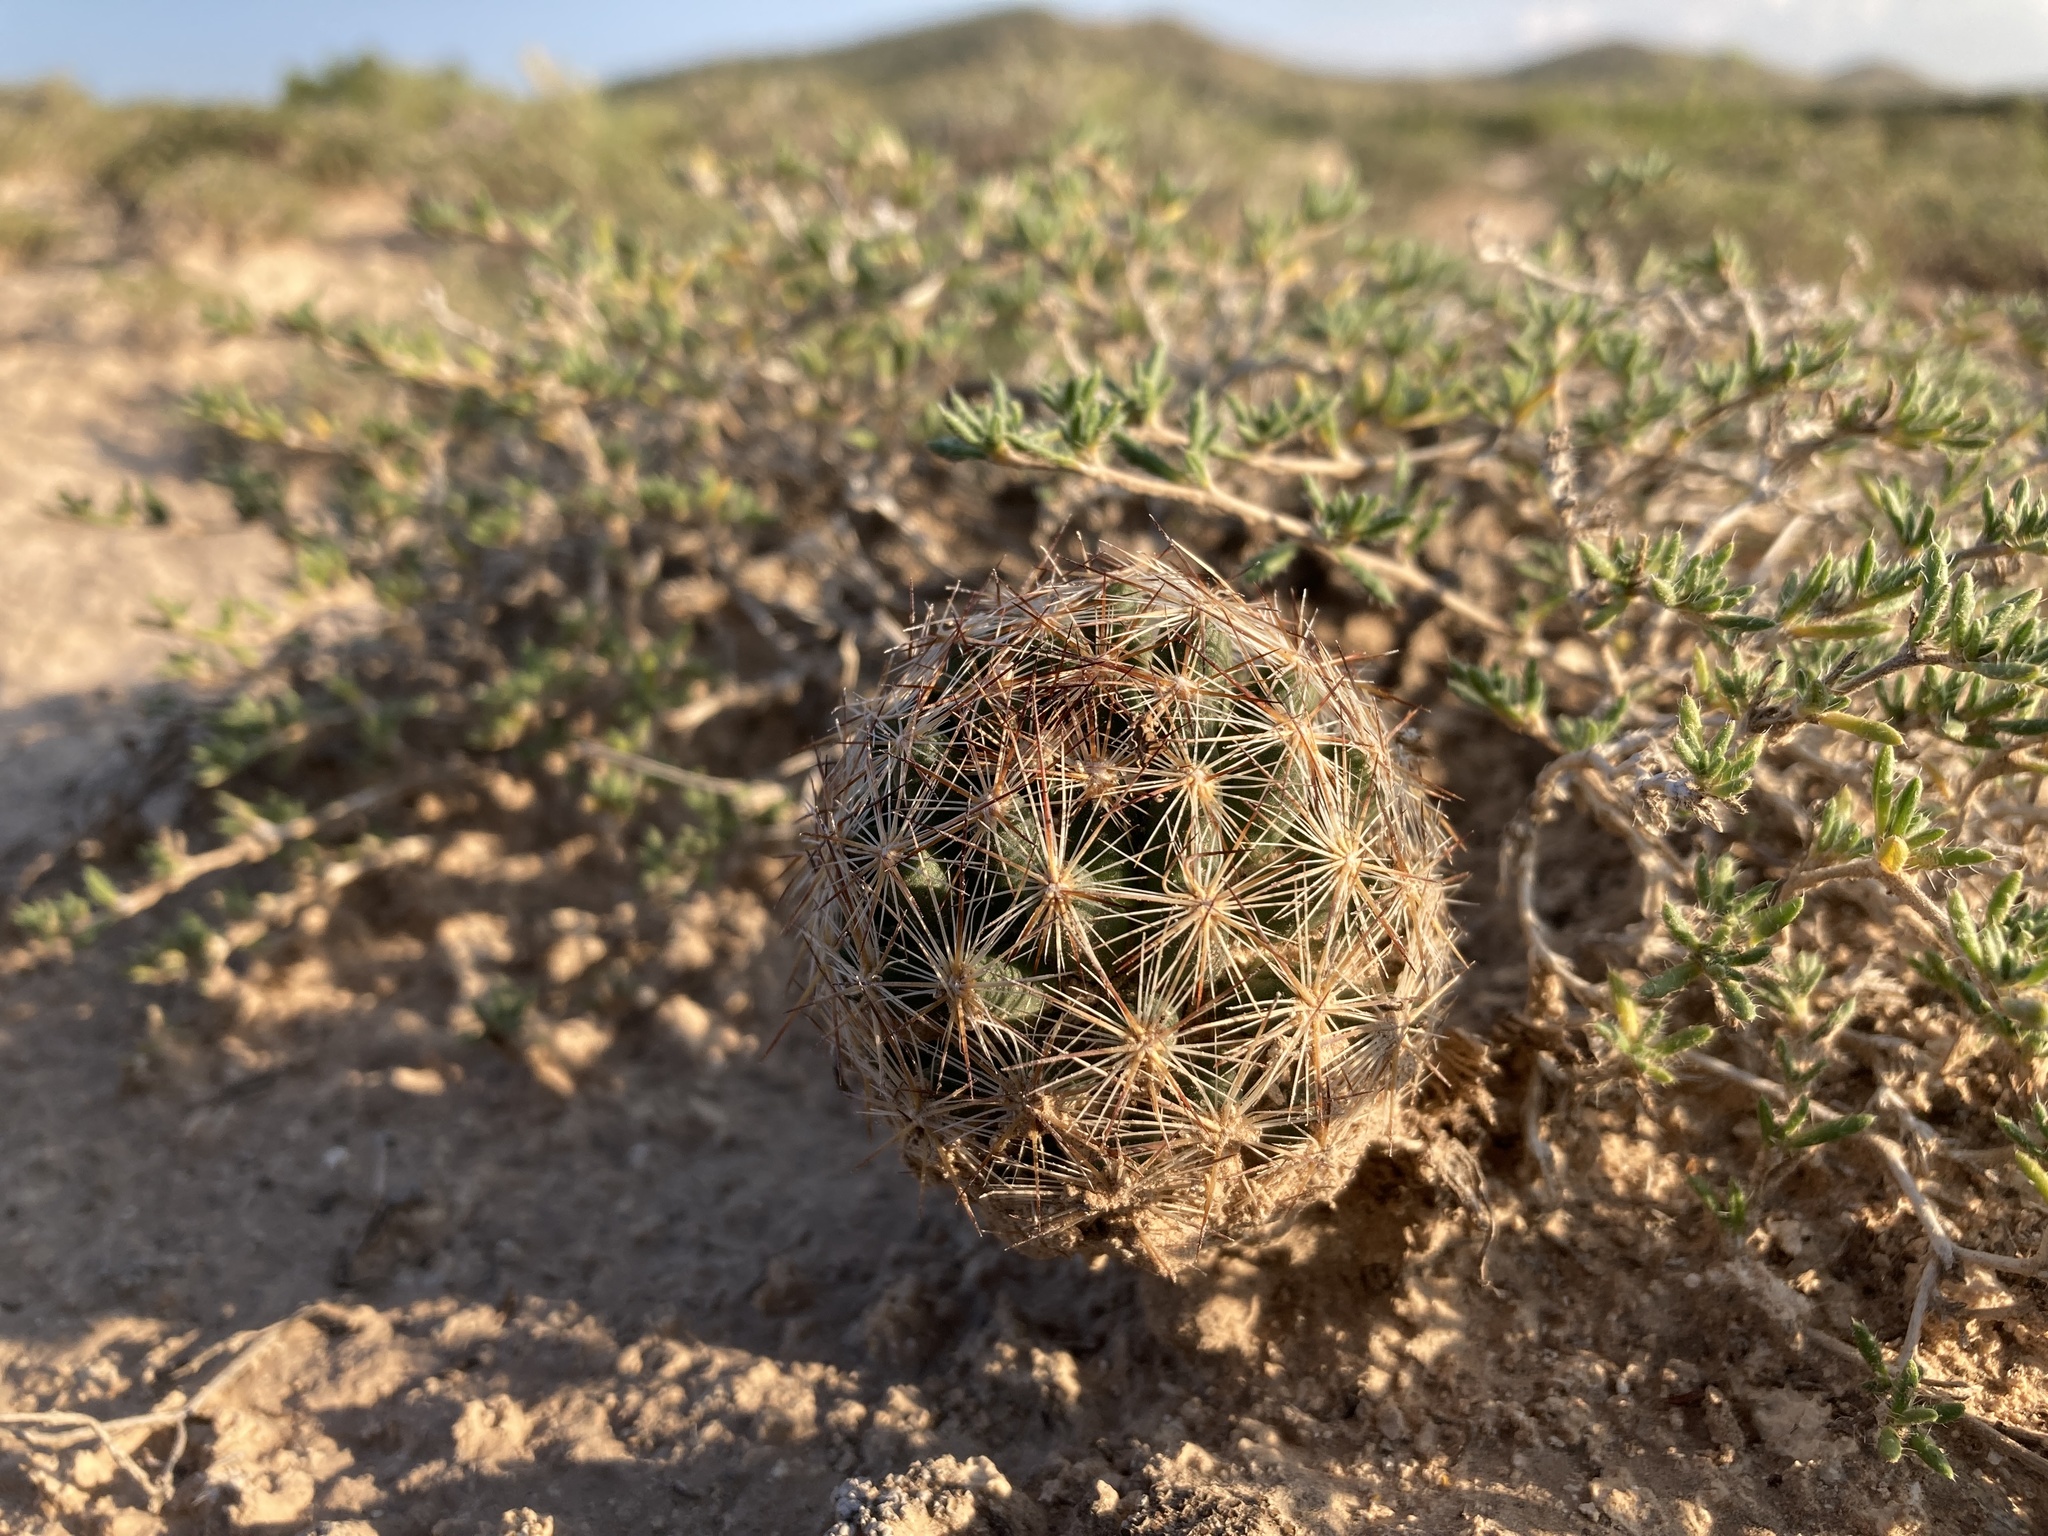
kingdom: Plantae
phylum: Tracheophyta
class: Magnoliopsida
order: Caryophyllales
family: Cactaceae
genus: Pelecyphora
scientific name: Pelecyphora vivipara
